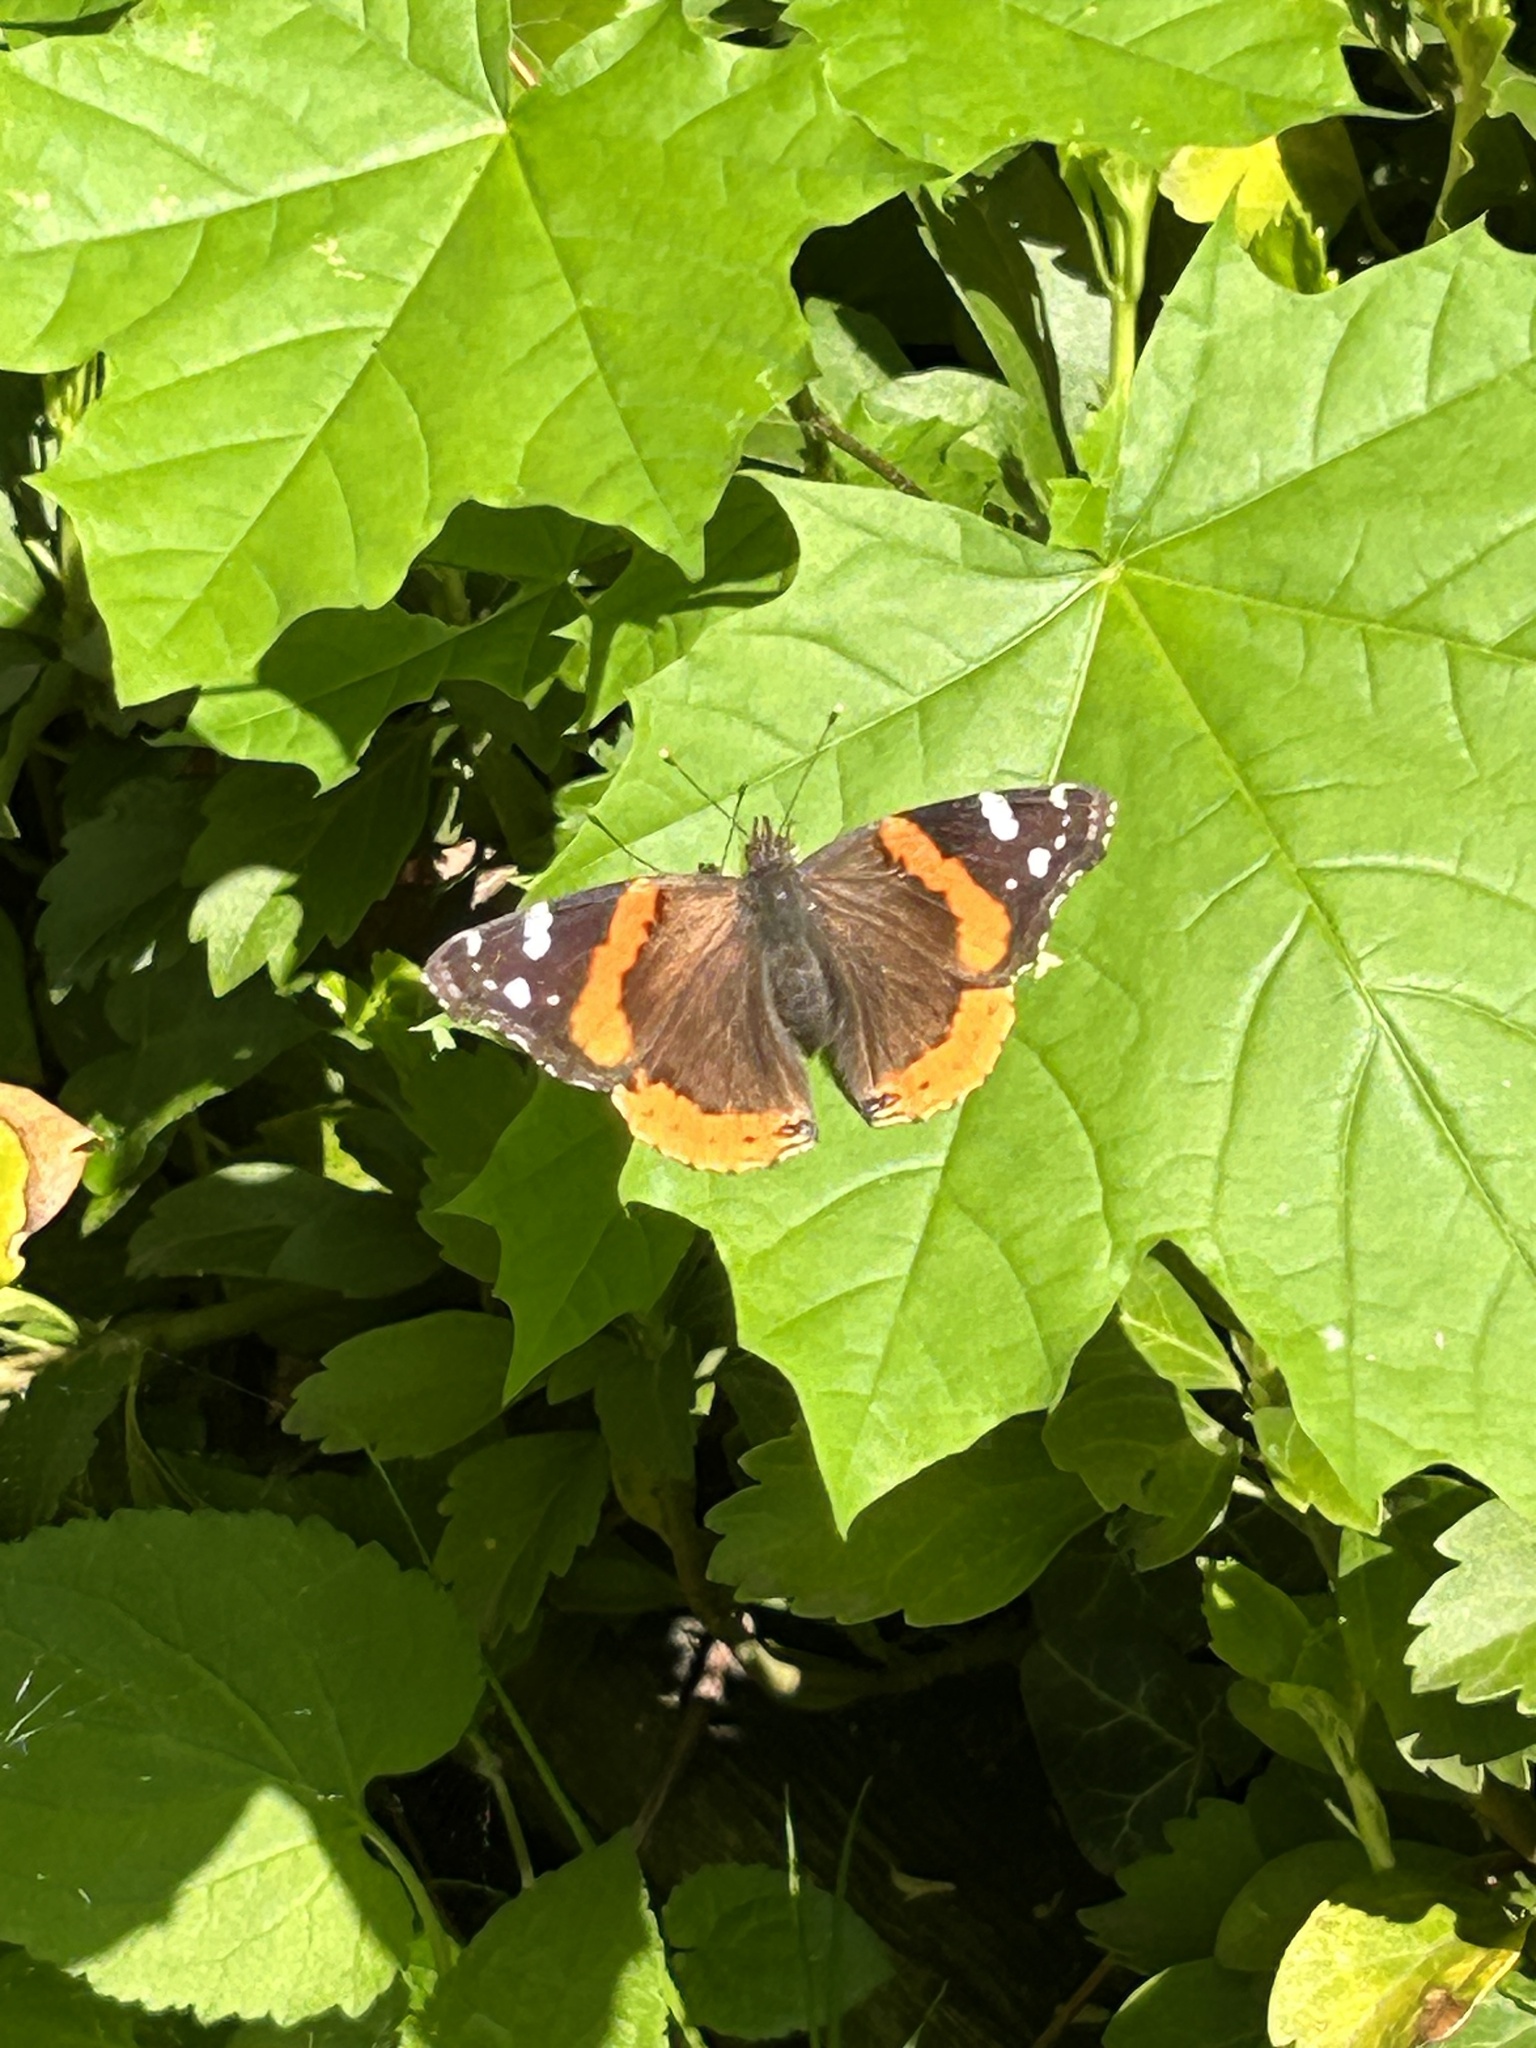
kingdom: Animalia
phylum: Arthropoda
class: Insecta
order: Lepidoptera
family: Nymphalidae
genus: Vanessa
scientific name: Vanessa atalanta
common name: Red admiral
